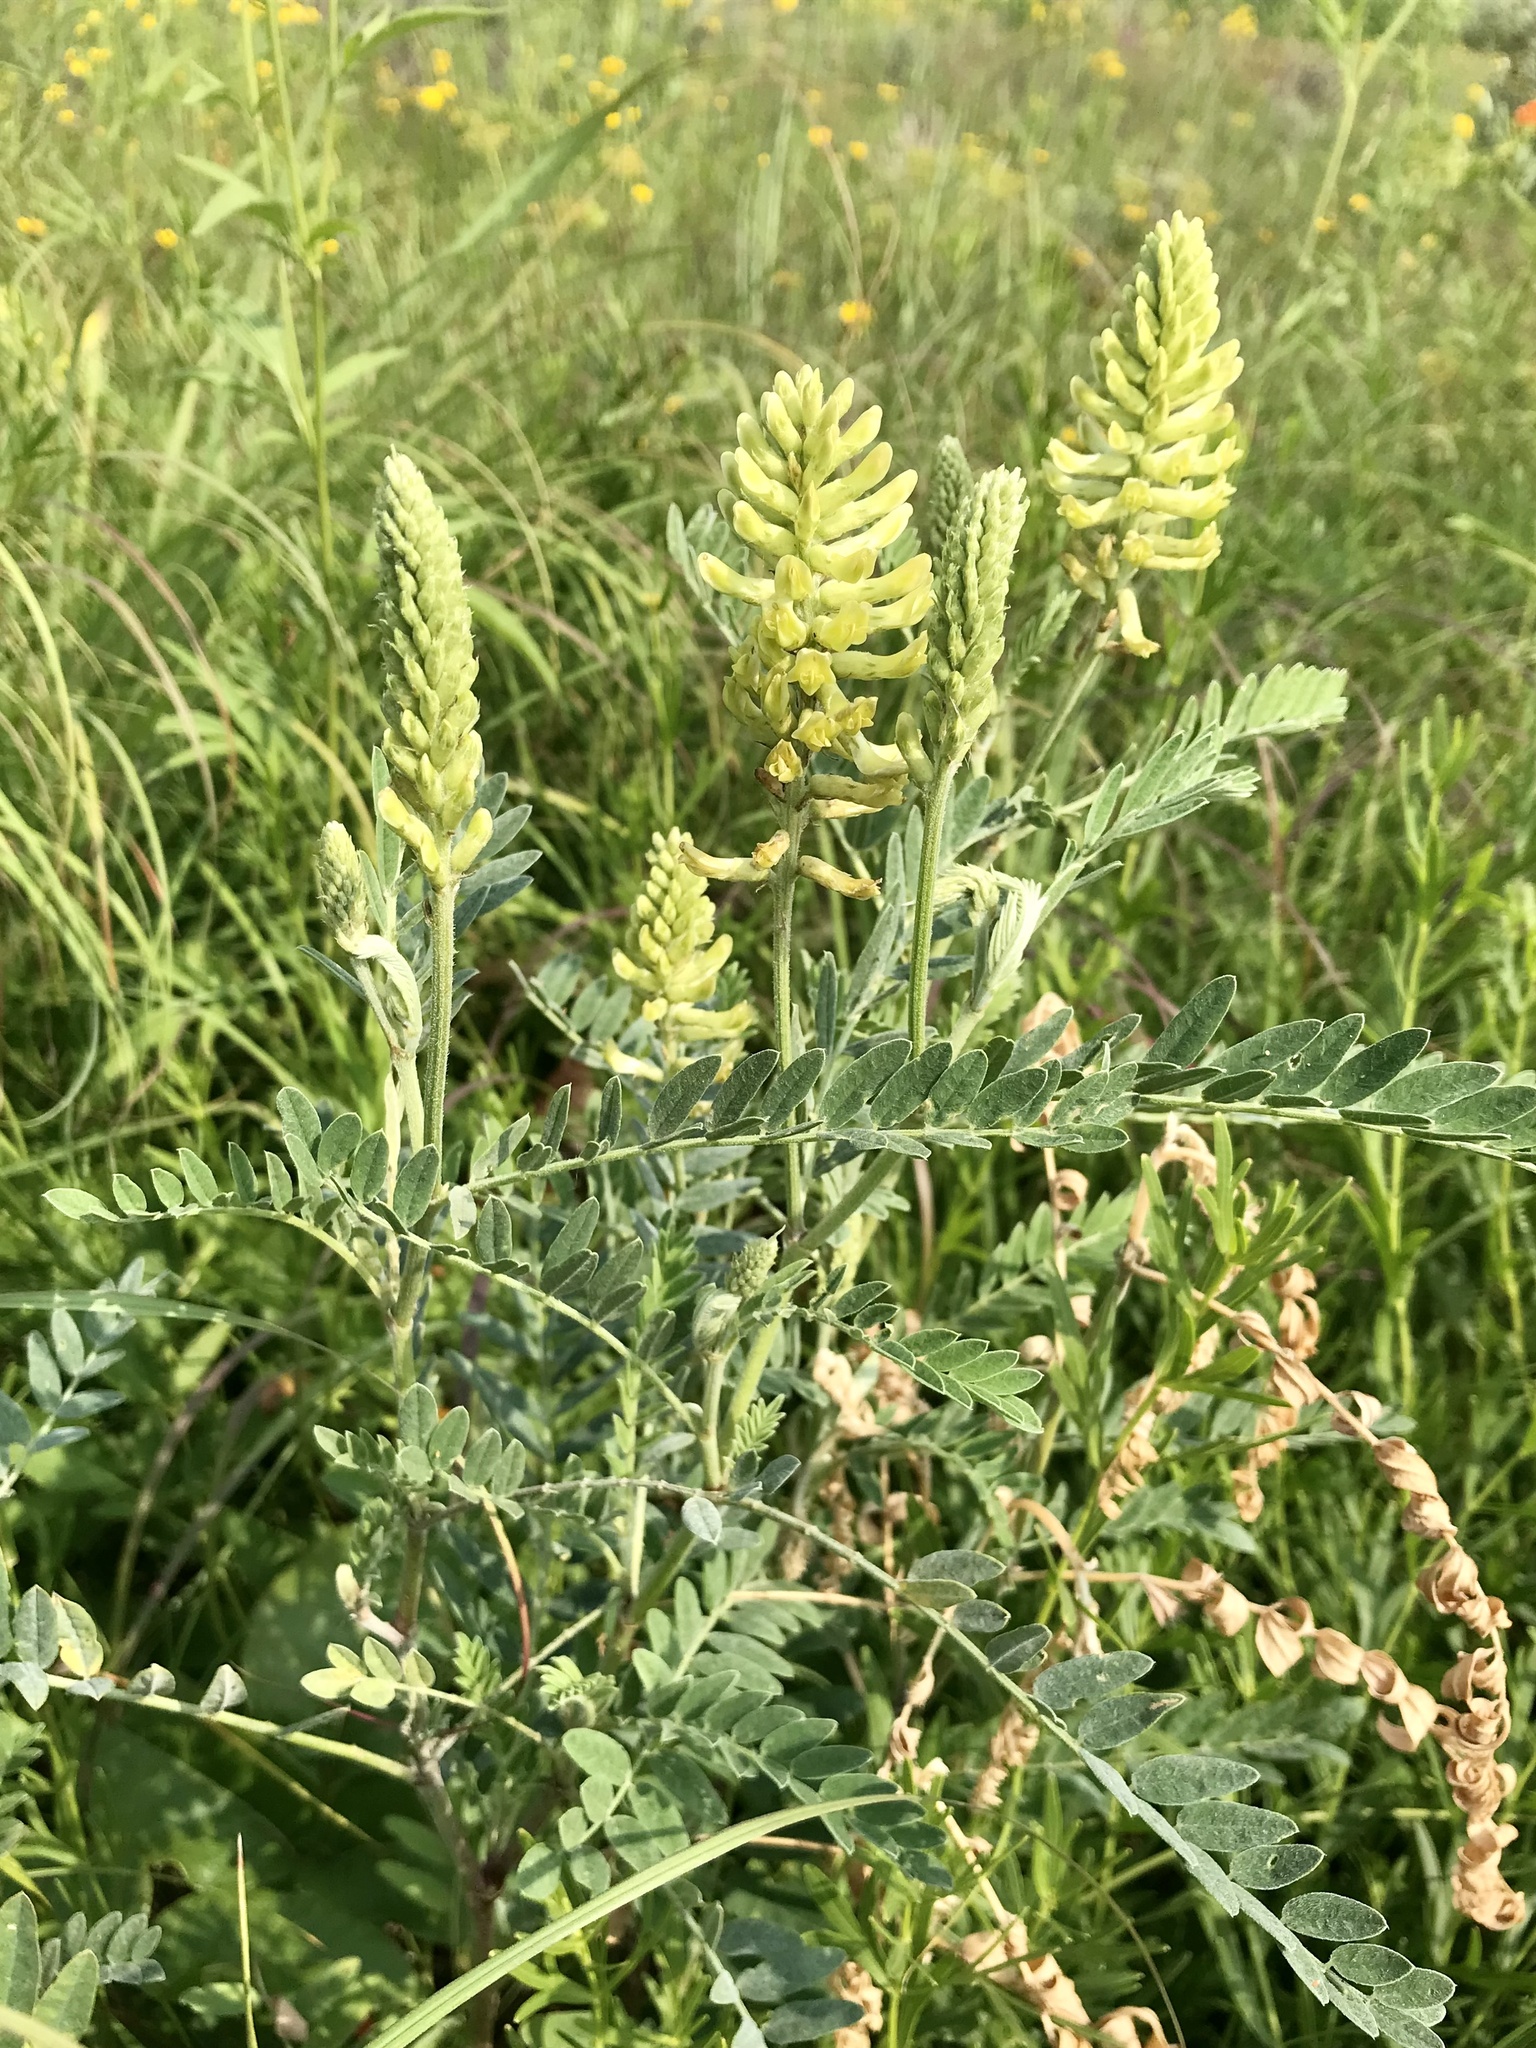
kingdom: Plantae
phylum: Tracheophyta
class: Magnoliopsida
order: Fabales
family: Fabaceae
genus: Astragalus
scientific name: Astragalus canadensis
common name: Canada milk-vetch
